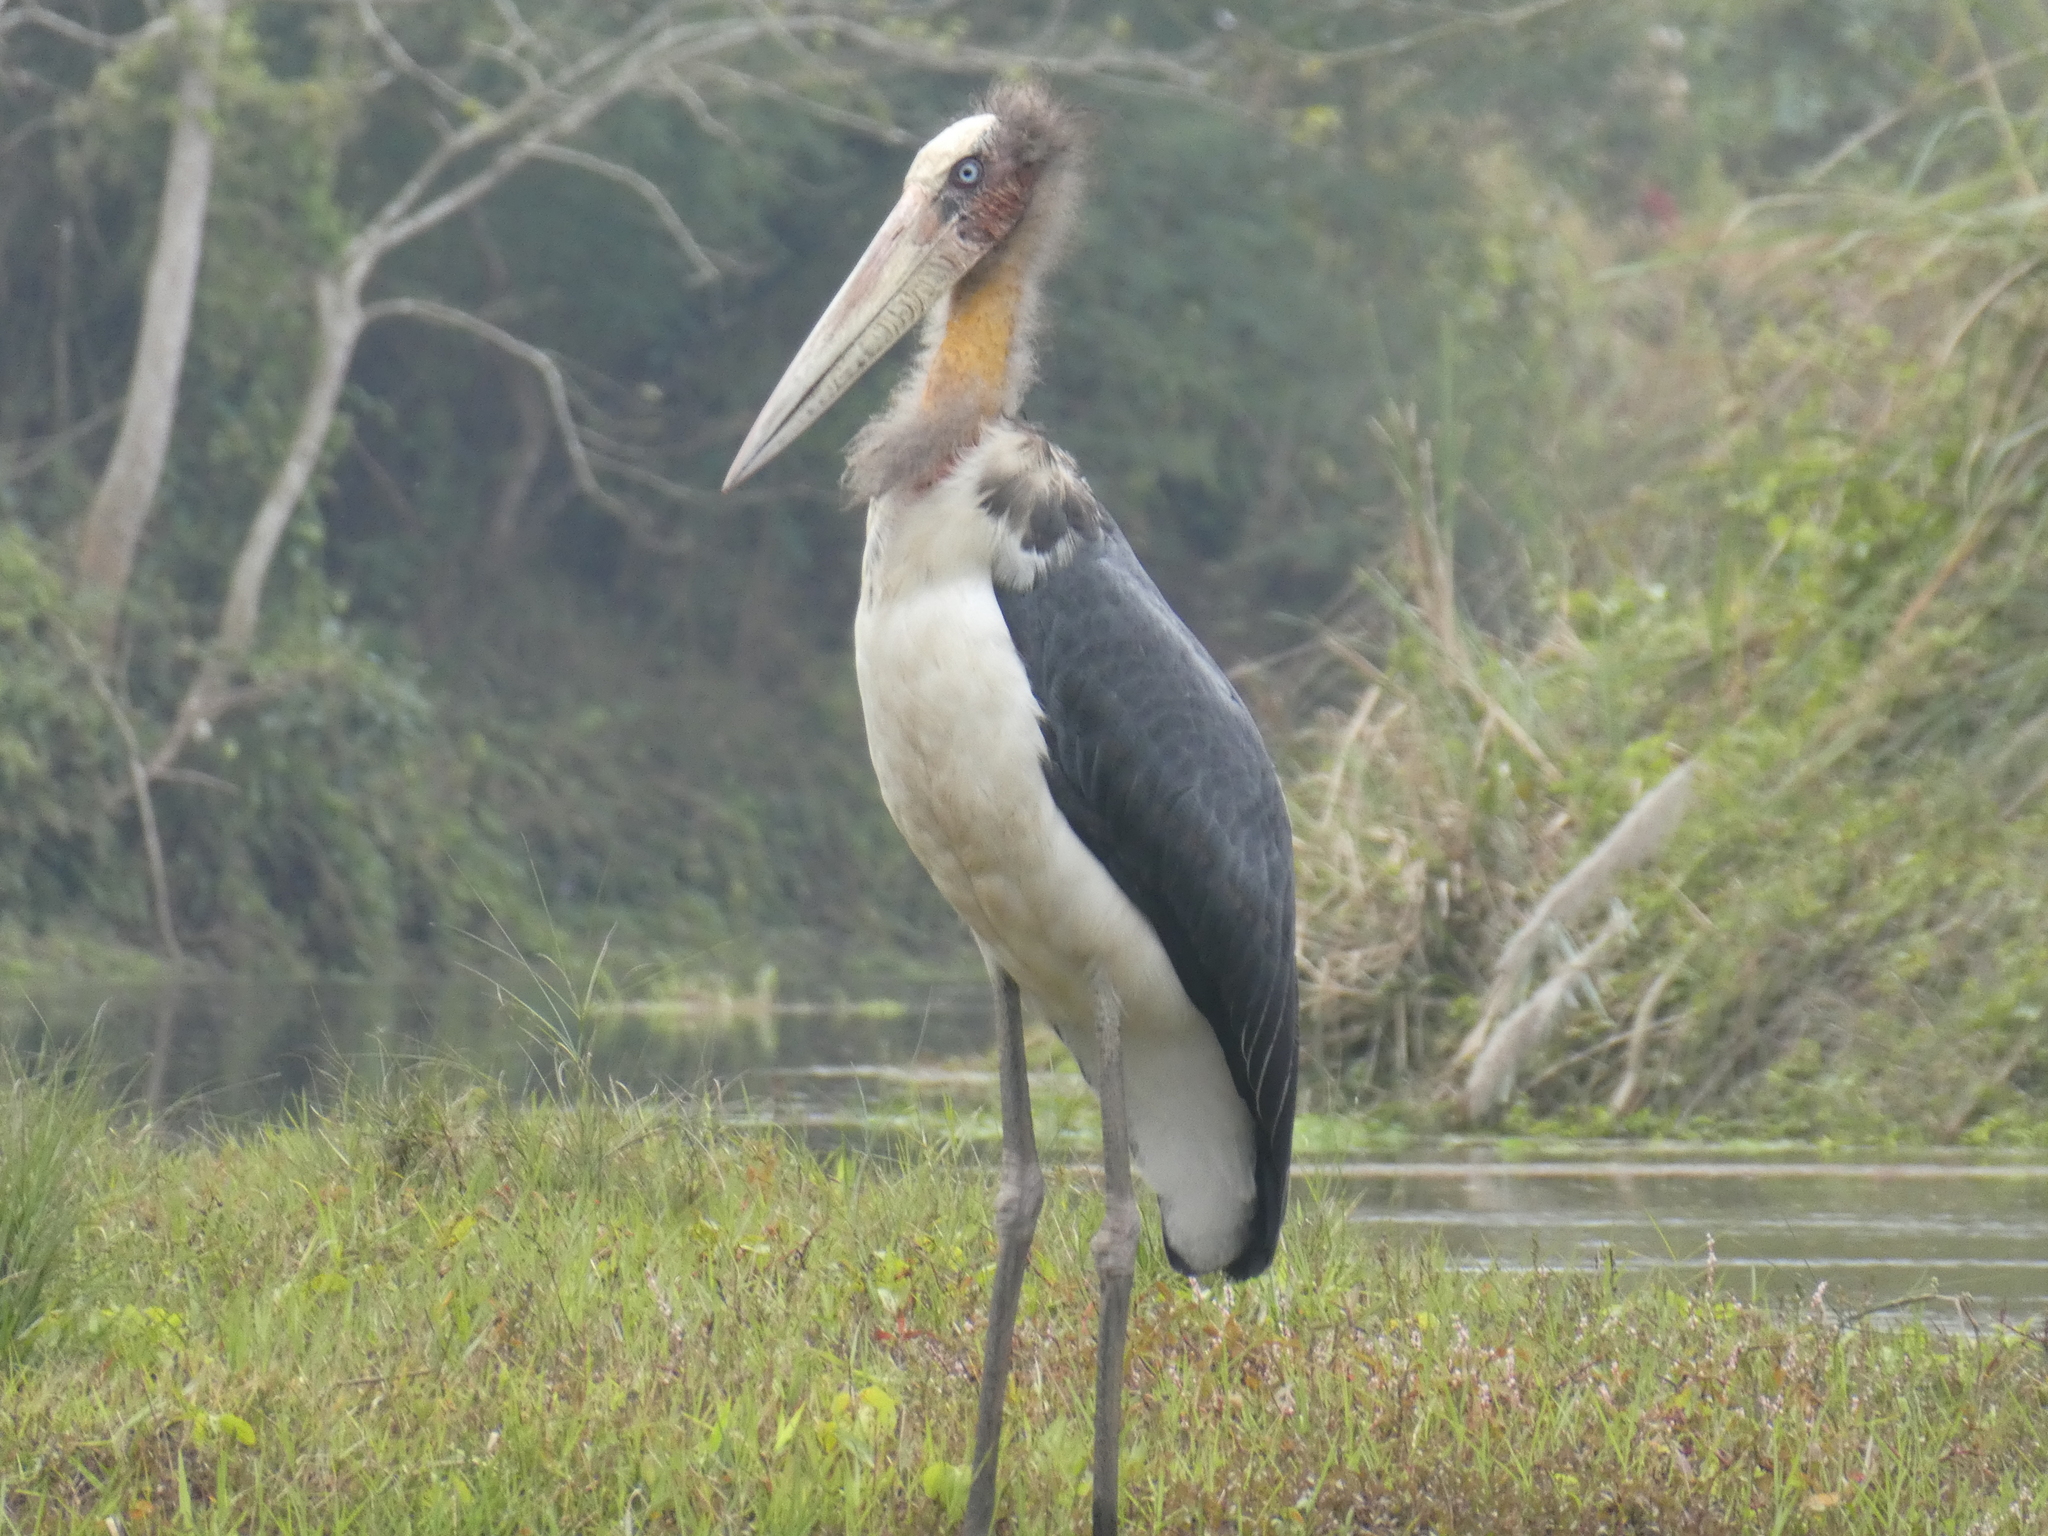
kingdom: Animalia
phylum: Chordata
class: Aves
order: Ciconiiformes
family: Ciconiidae
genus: Leptoptilos
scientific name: Leptoptilos javanicus
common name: Lesser adjutant
